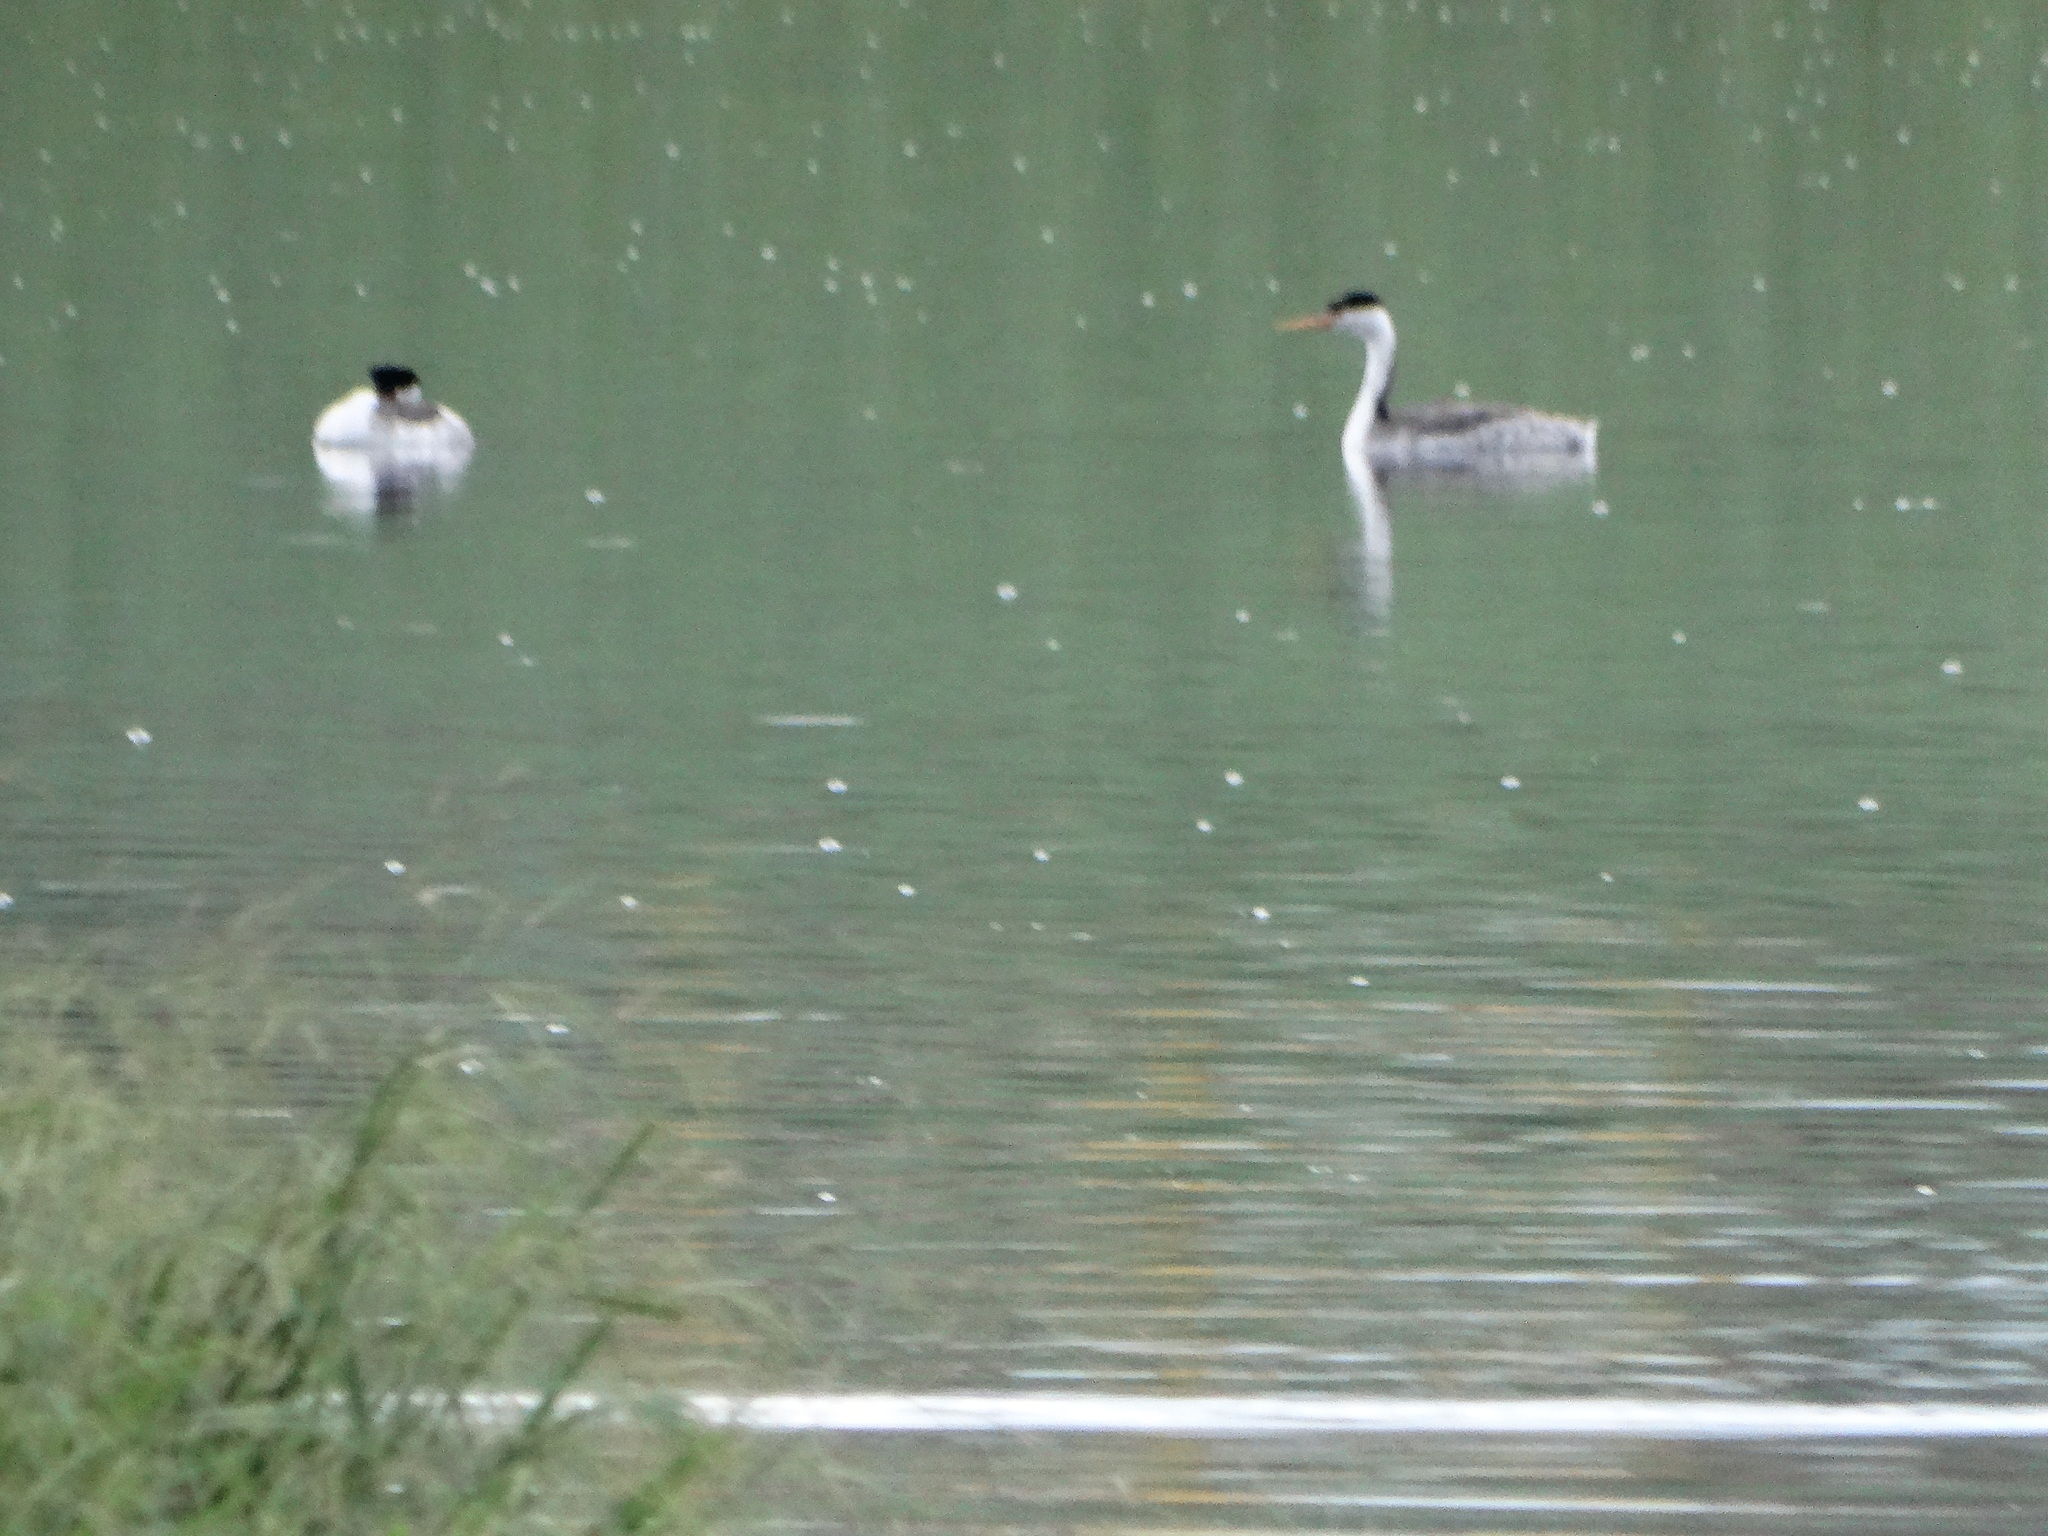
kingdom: Animalia
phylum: Chordata
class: Aves
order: Podicipediformes
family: Podicipedidae
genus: Aechmophorus
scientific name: Aechmophorus clarkii
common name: Clark's grebe
